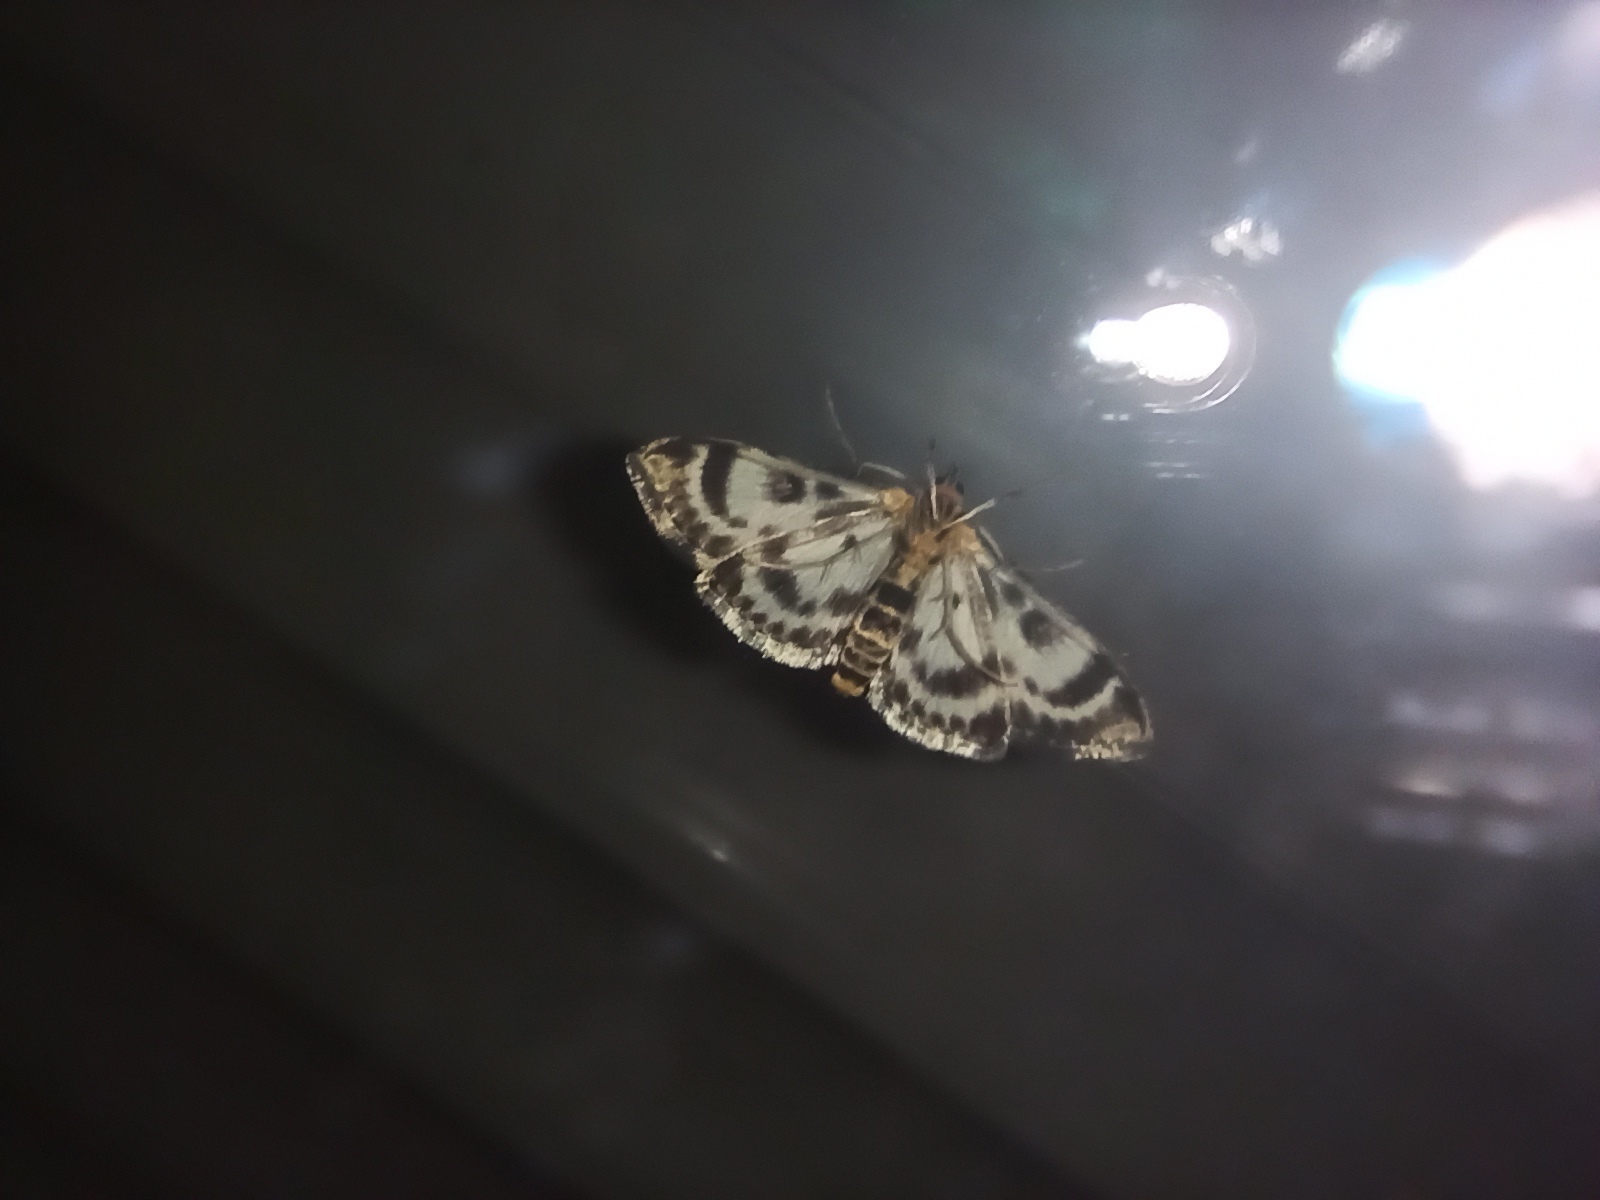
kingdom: Animalia
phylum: Arthropoda
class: Insecta
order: Lepidoptera
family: Crambidae
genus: Anania
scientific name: Anania hortulata
